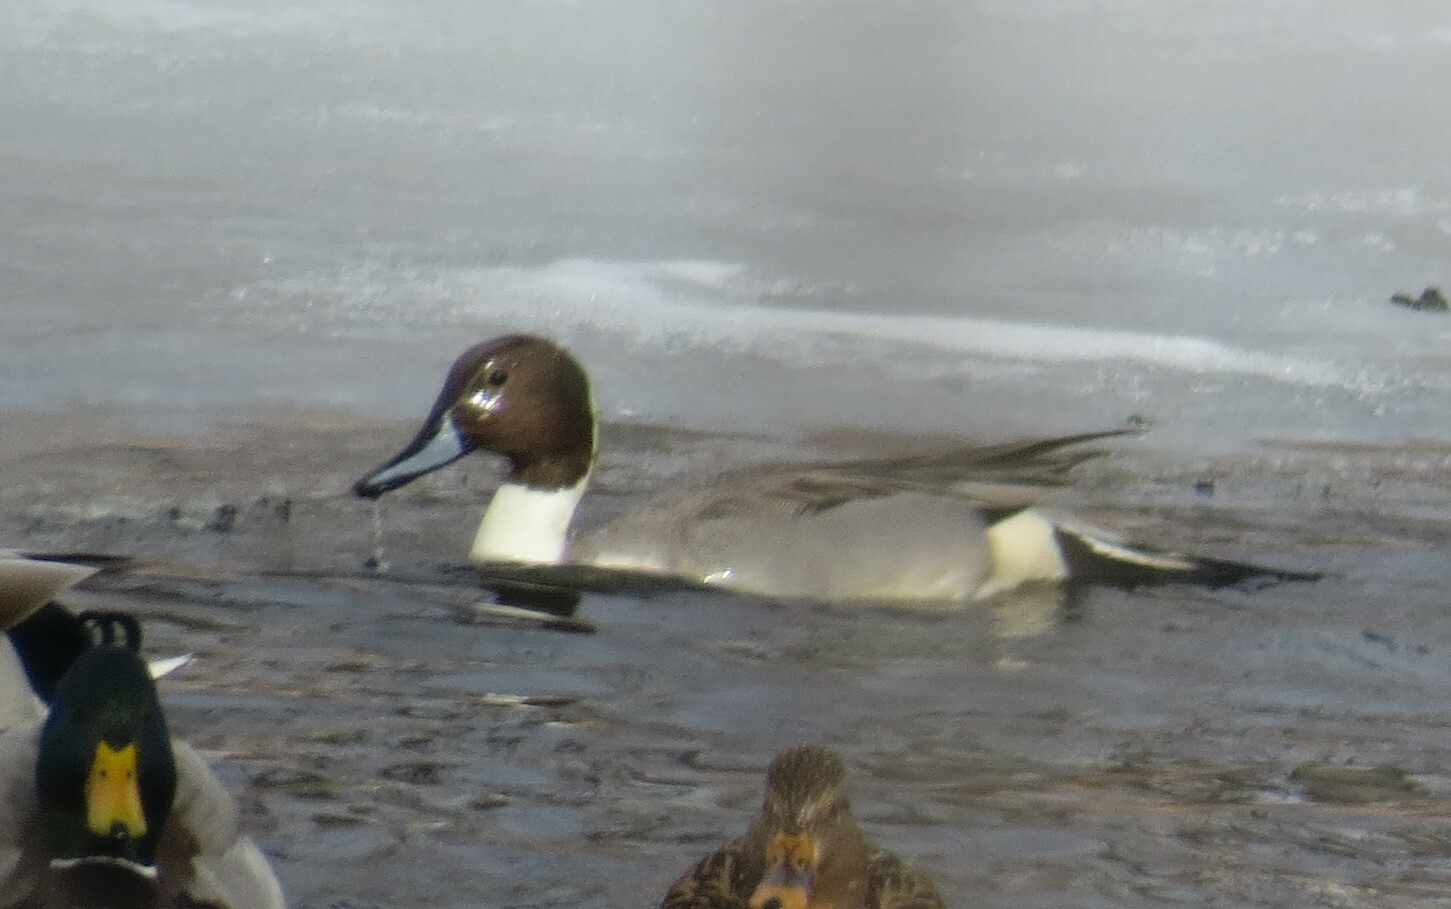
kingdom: Animalia
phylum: Chordata
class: Aves
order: Anseriformes
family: Anatidae
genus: Anas
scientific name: Anas acuta
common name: Northern pintail
